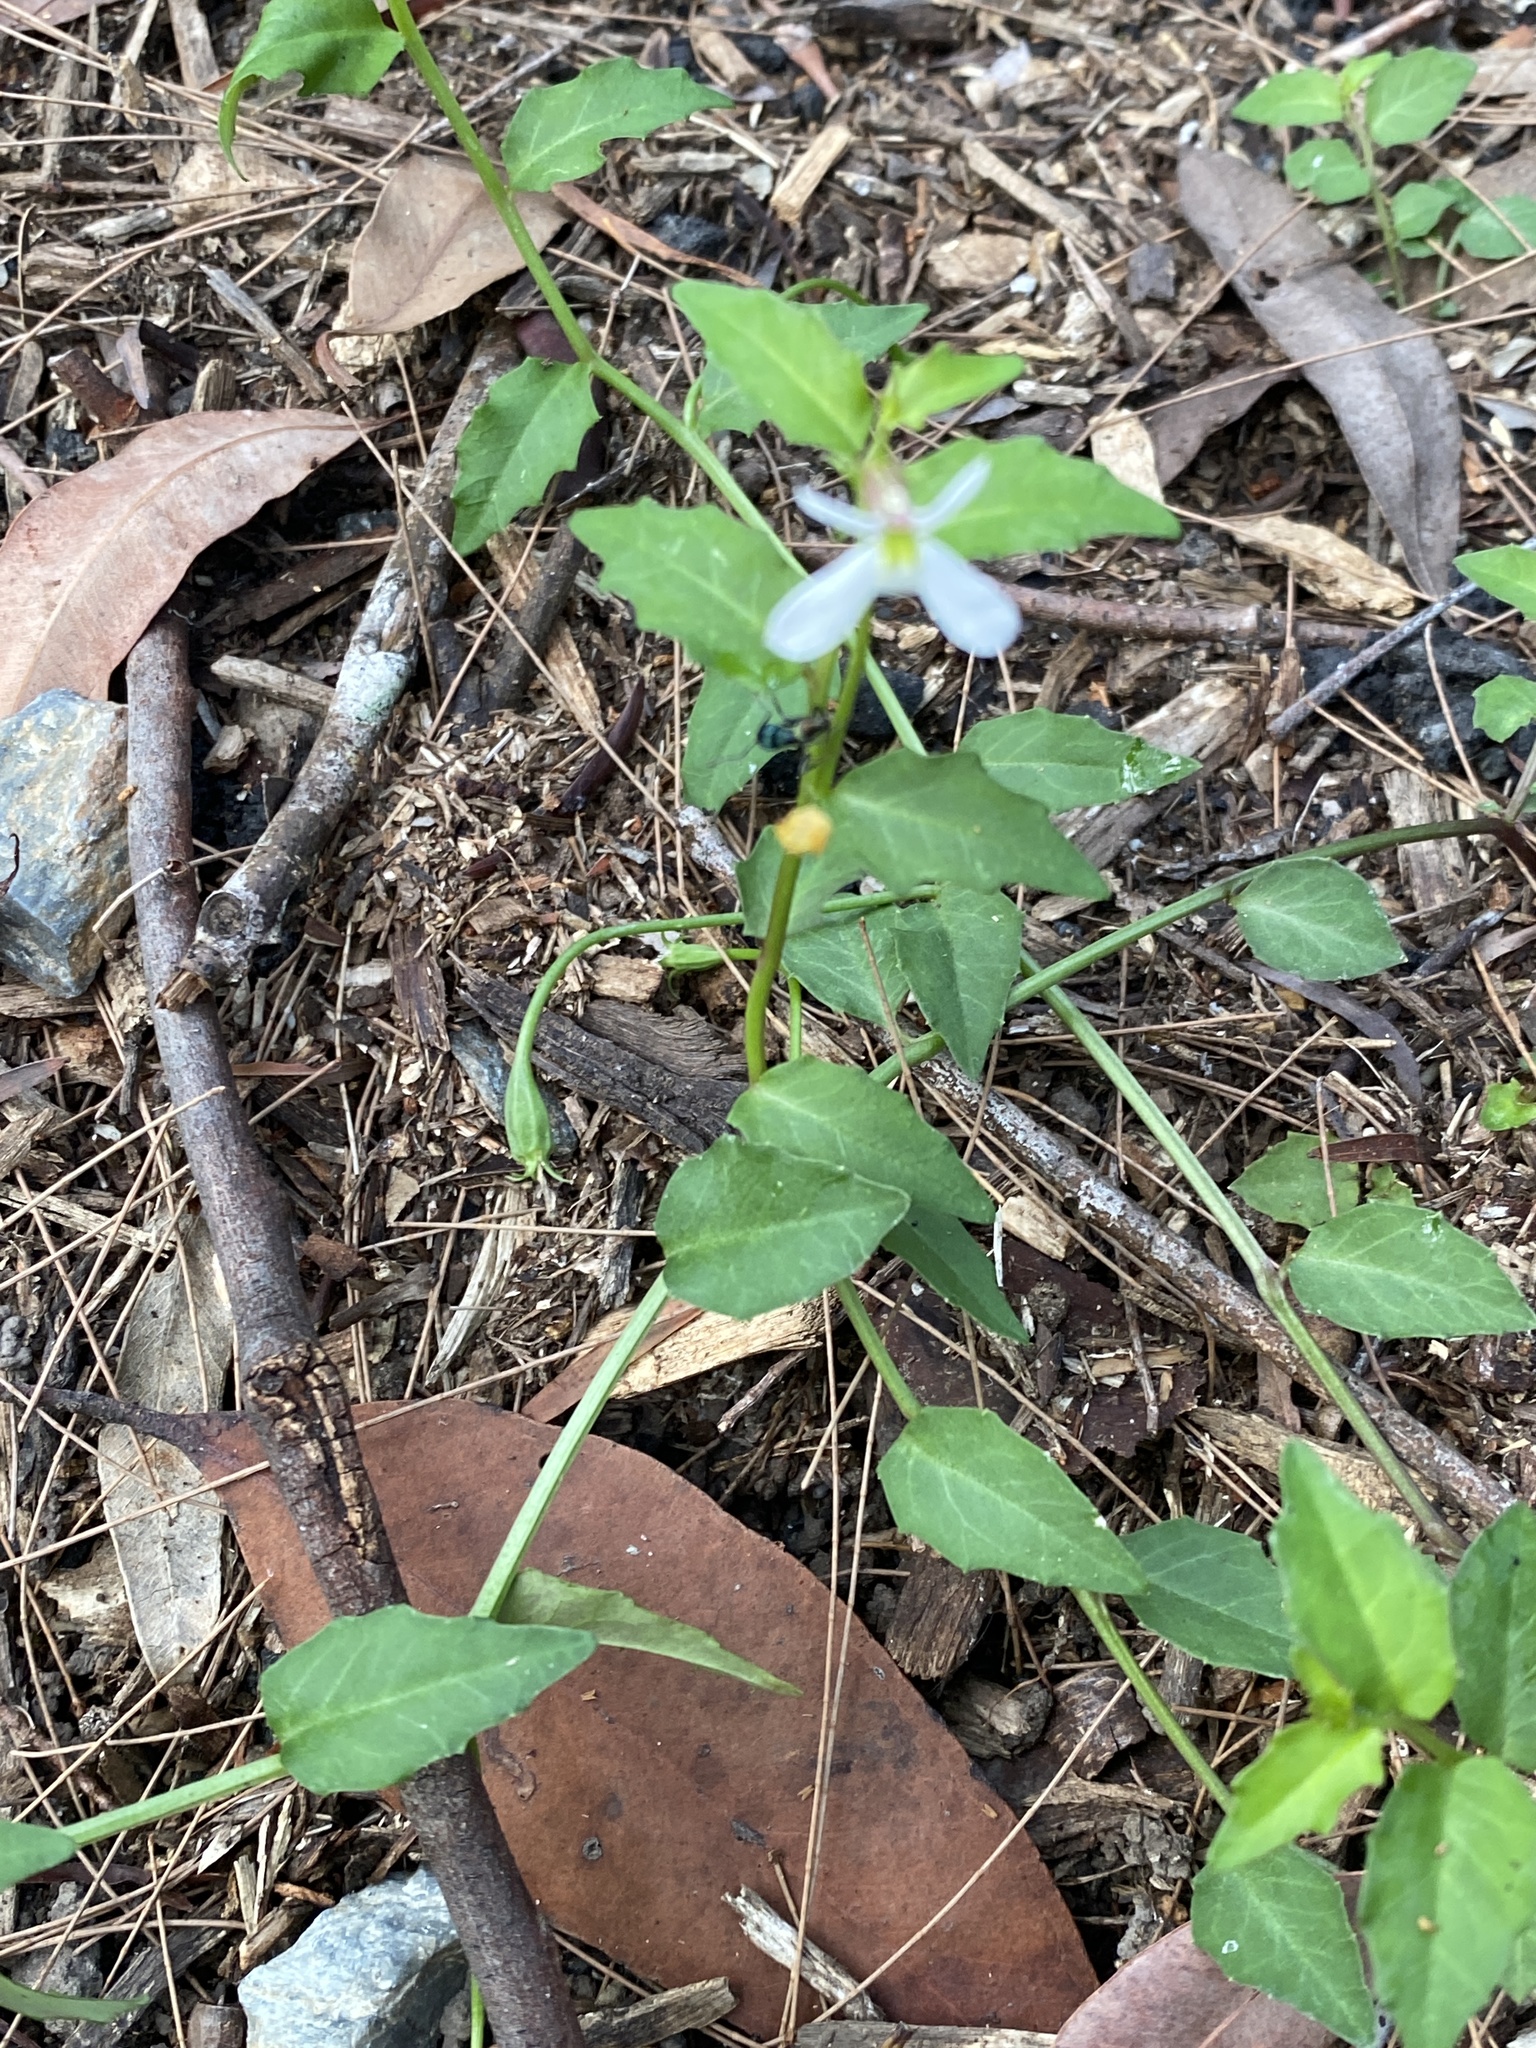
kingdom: Plantae
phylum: Tracheophyta
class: Magnoliopsida
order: Asterales
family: Campanulaceae
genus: Lobelia
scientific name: Lobelia purpurascens
